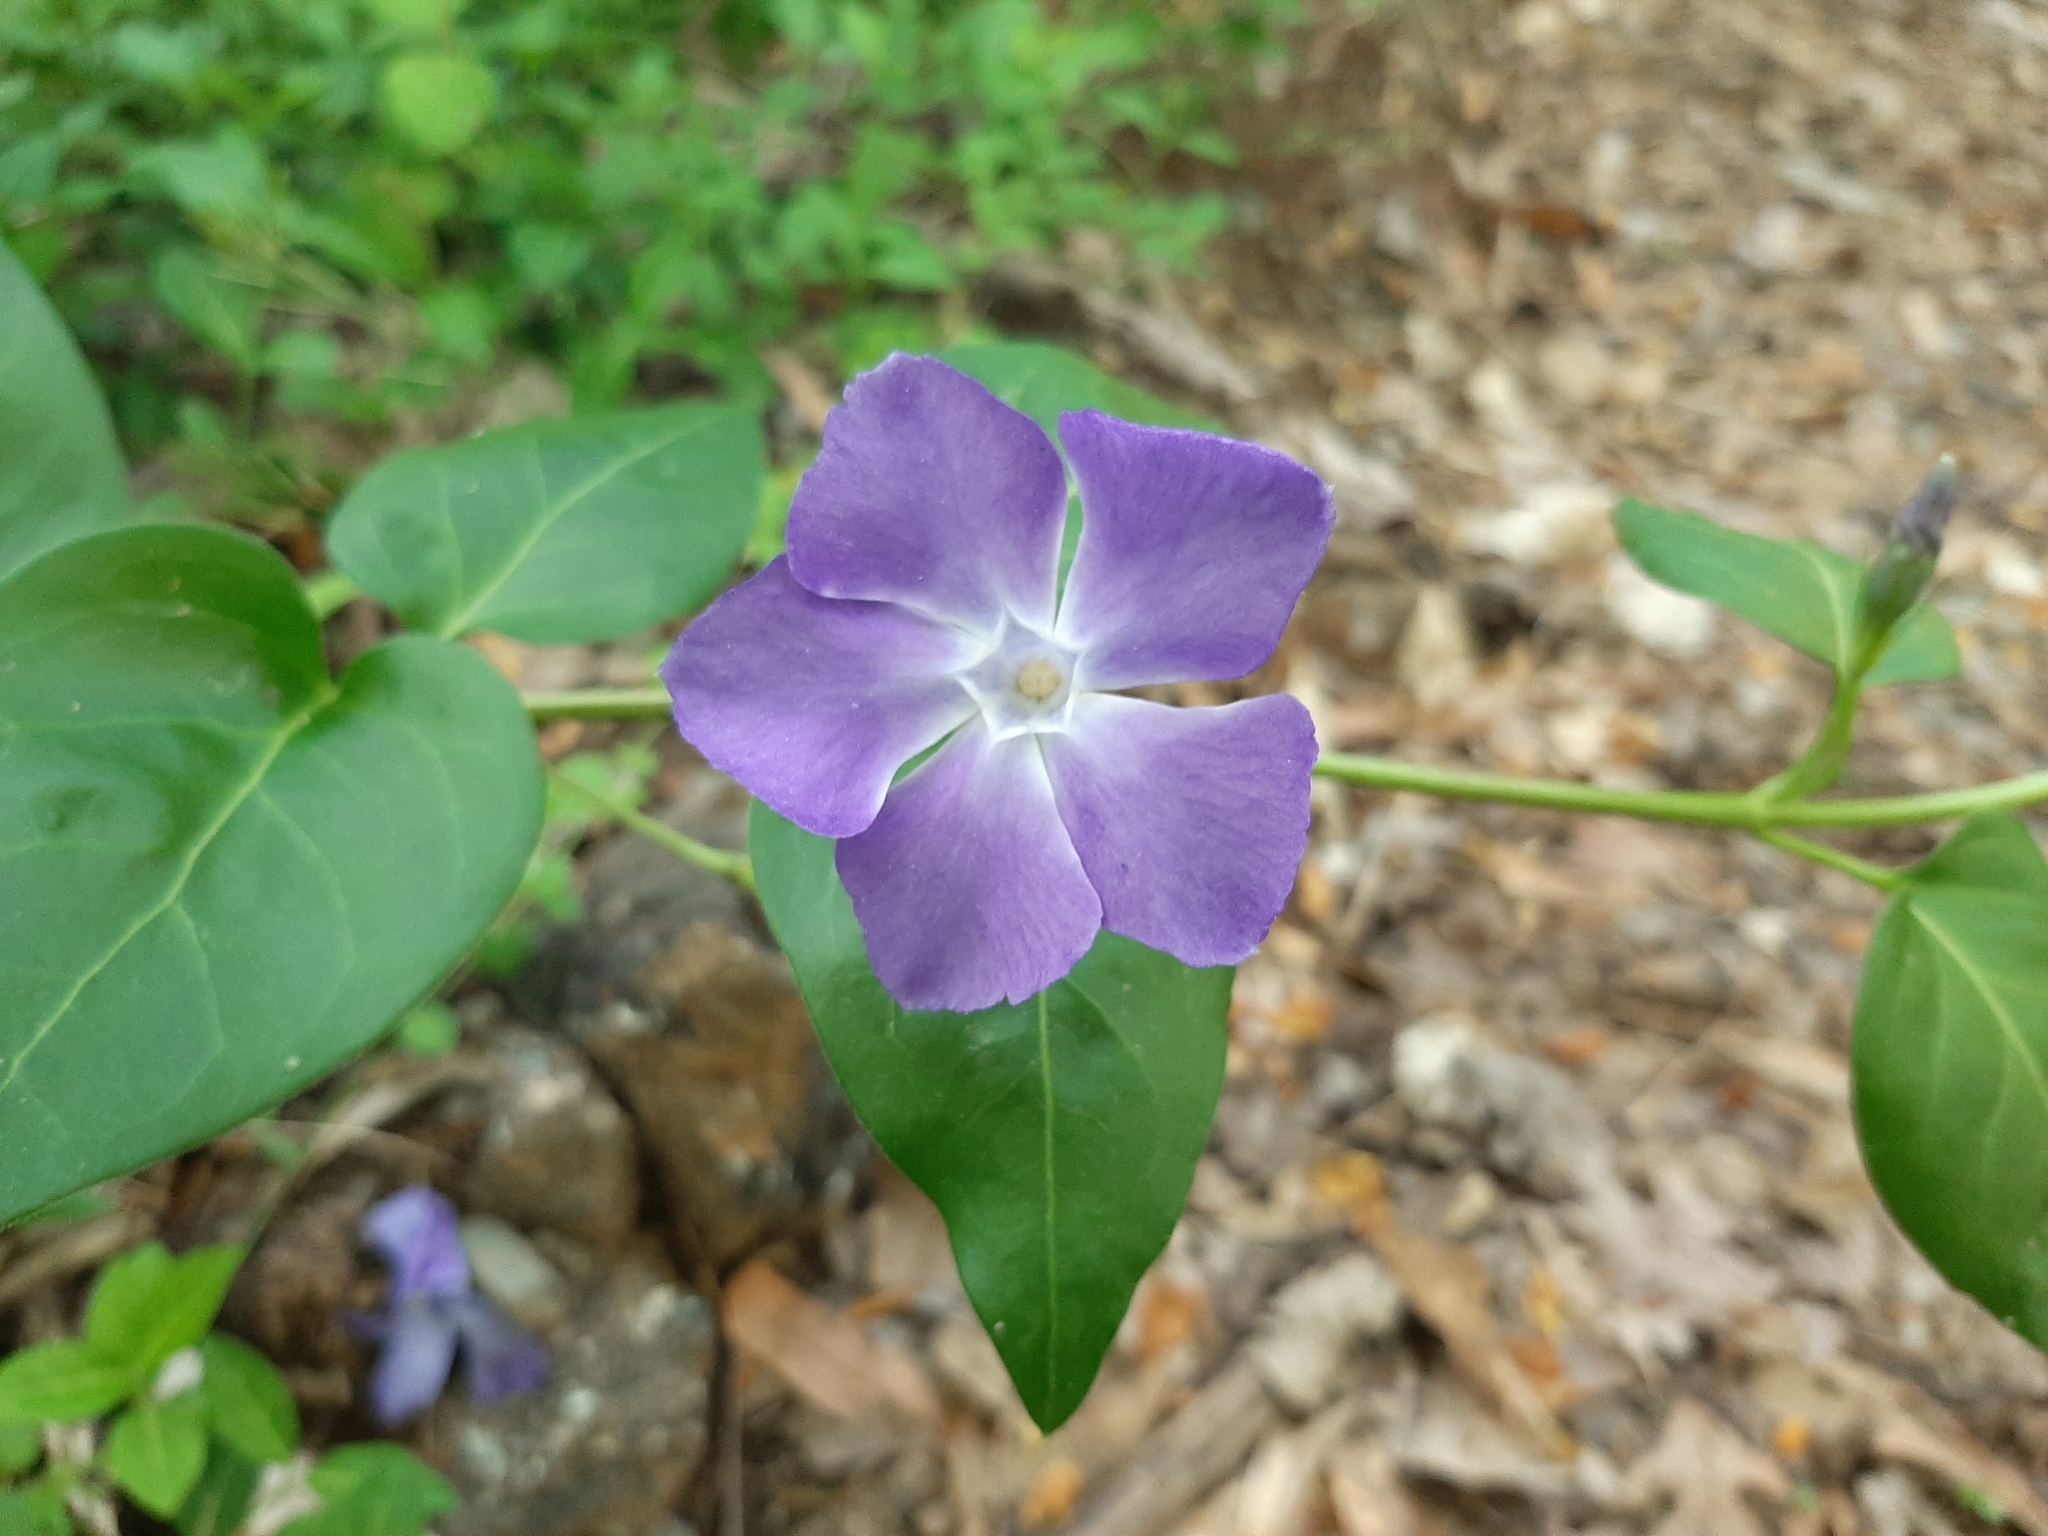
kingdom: Plantae
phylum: Tracheophyta
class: Magnoliopsida
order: Gentianales
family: Apocynaceae
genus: Vinca
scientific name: Vinca major
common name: Greater periwinkle
